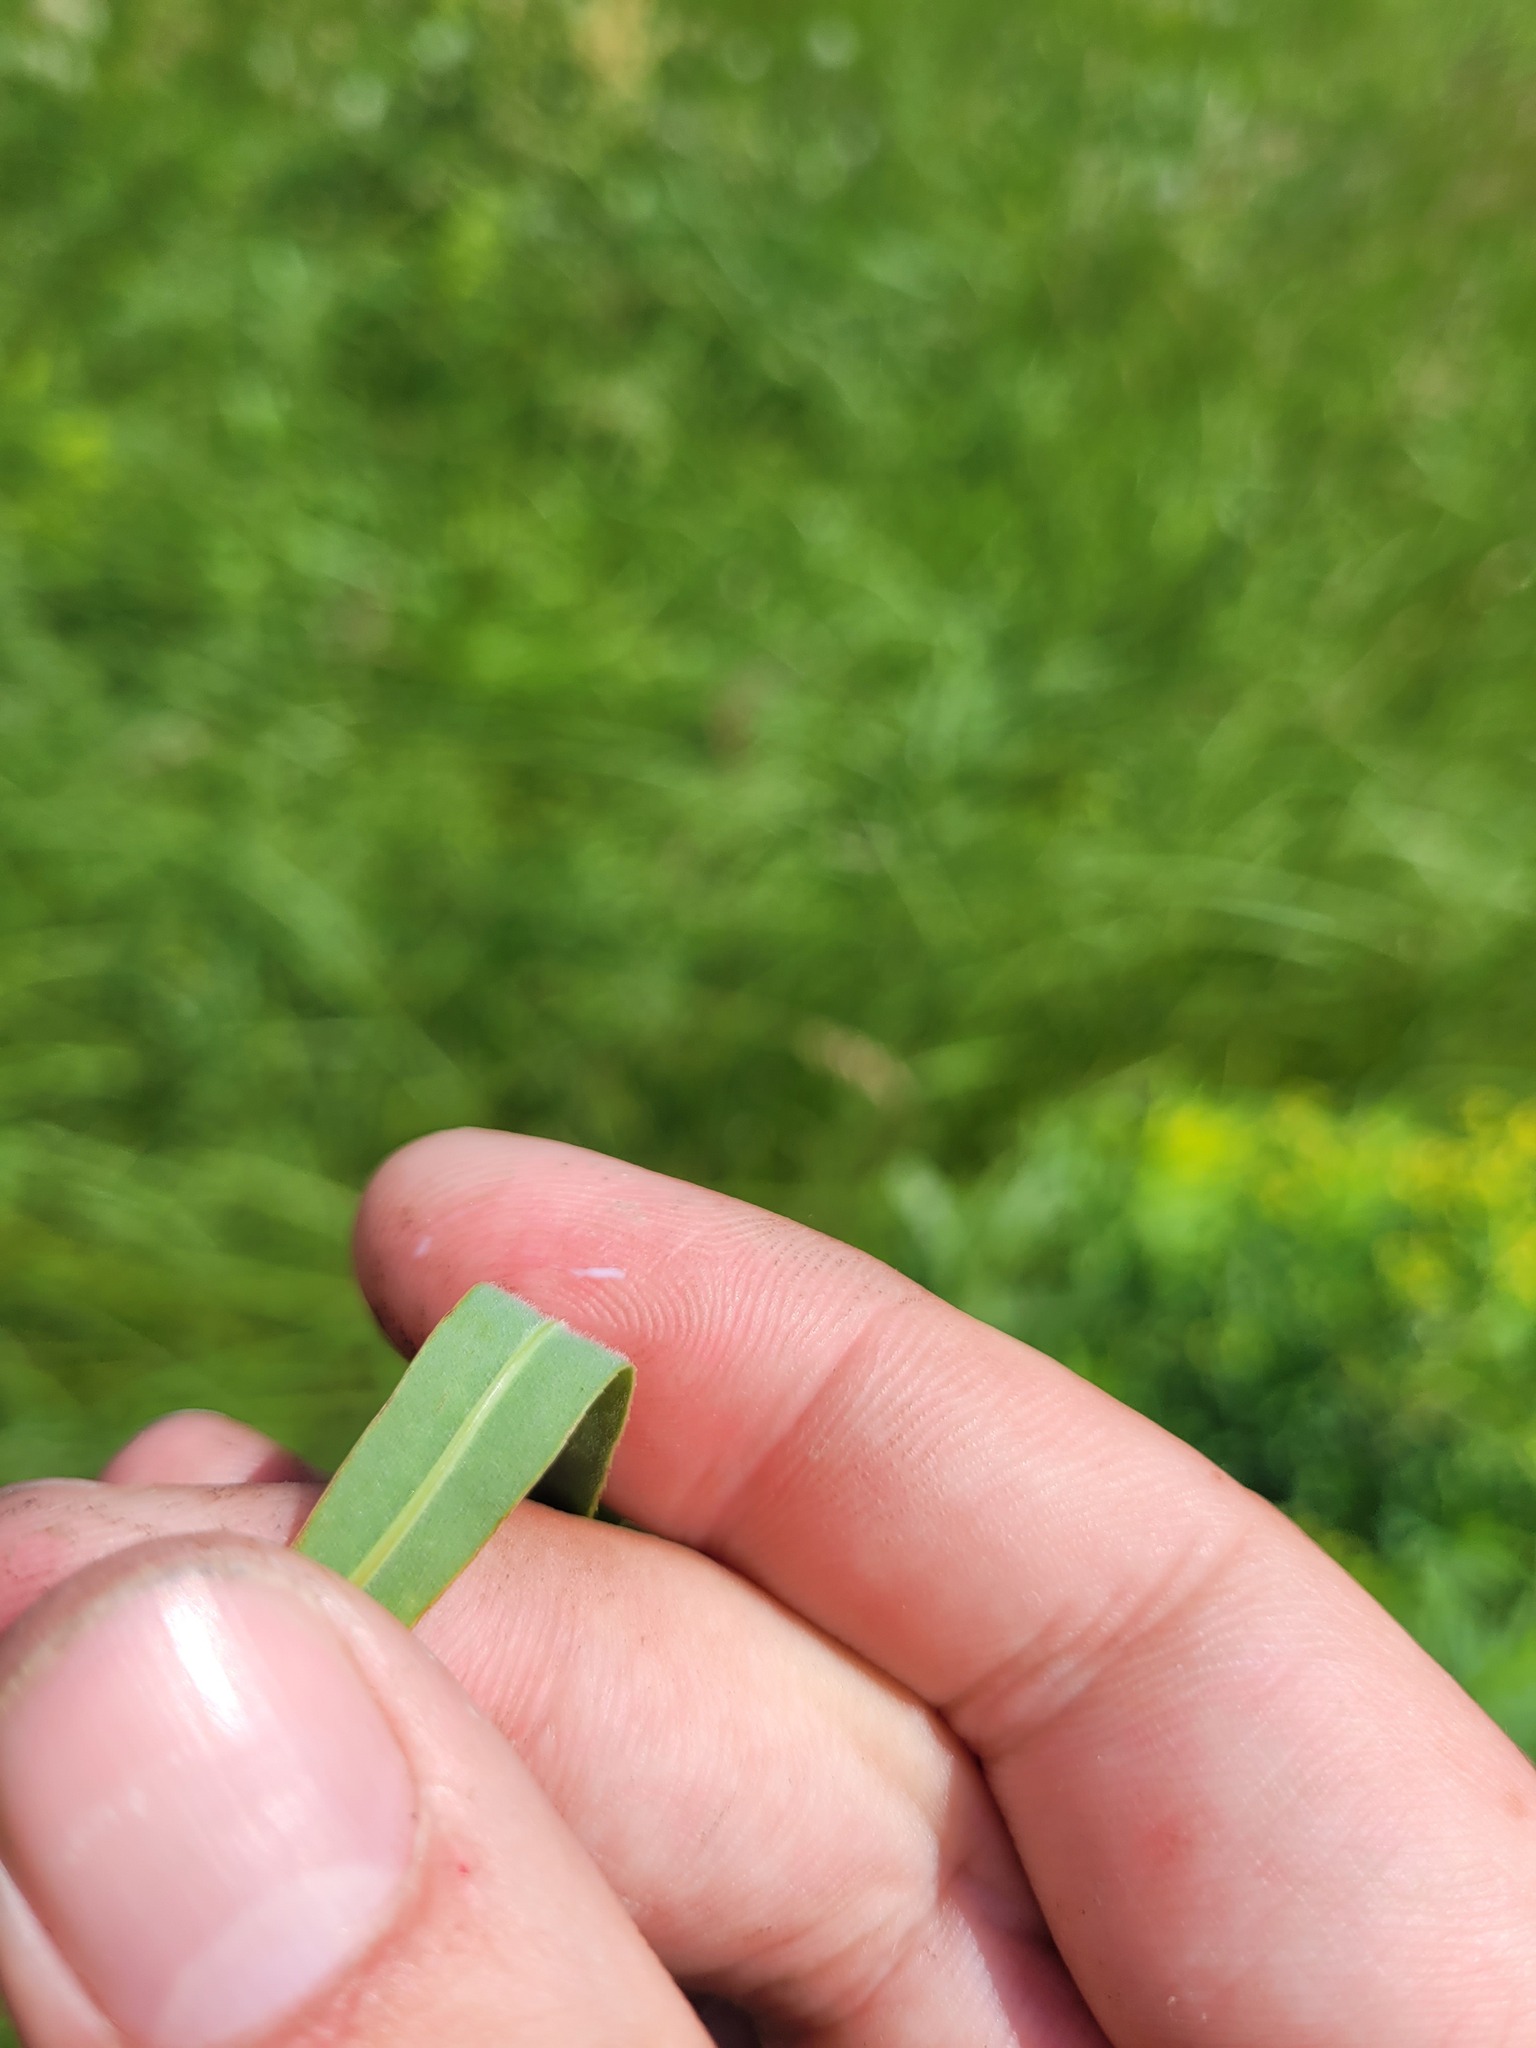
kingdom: Plantae
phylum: Tracheophyta
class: Magnoliopsida
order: Malpighiales
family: Euphorbiaceae
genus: Euphorbia
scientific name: Euphorbia semivillosa
